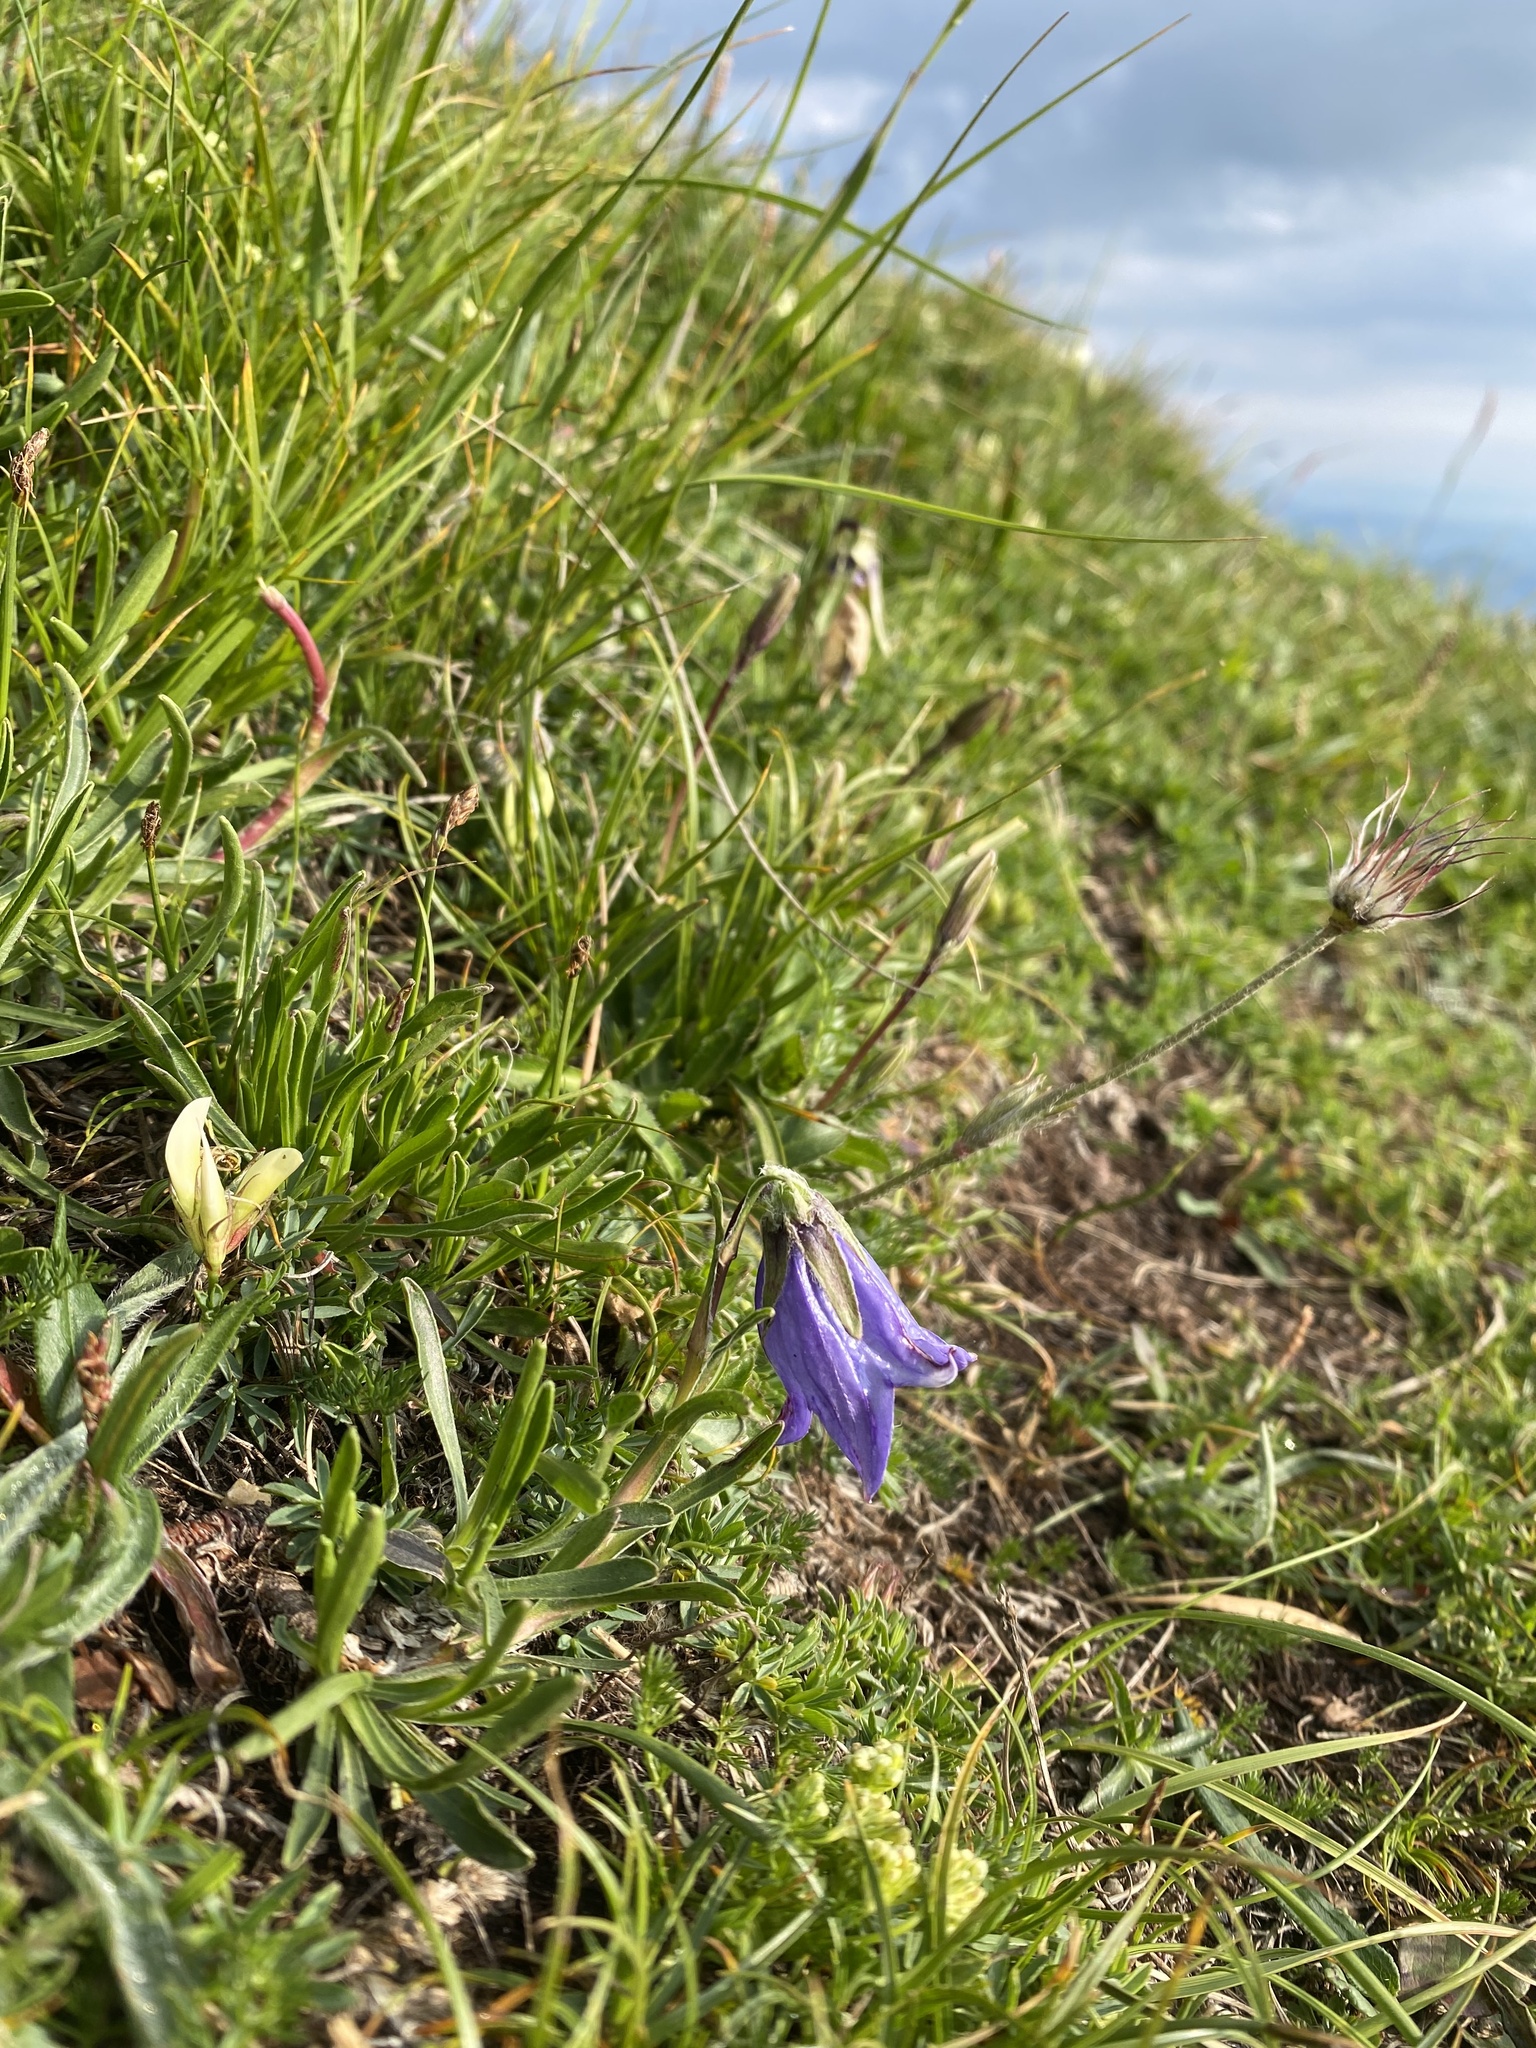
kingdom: Plantae
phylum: Tracheophyta
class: Magnoliopsida
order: Asterales
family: Campanulaceae
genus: Campanula
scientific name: Campanula tridentata
